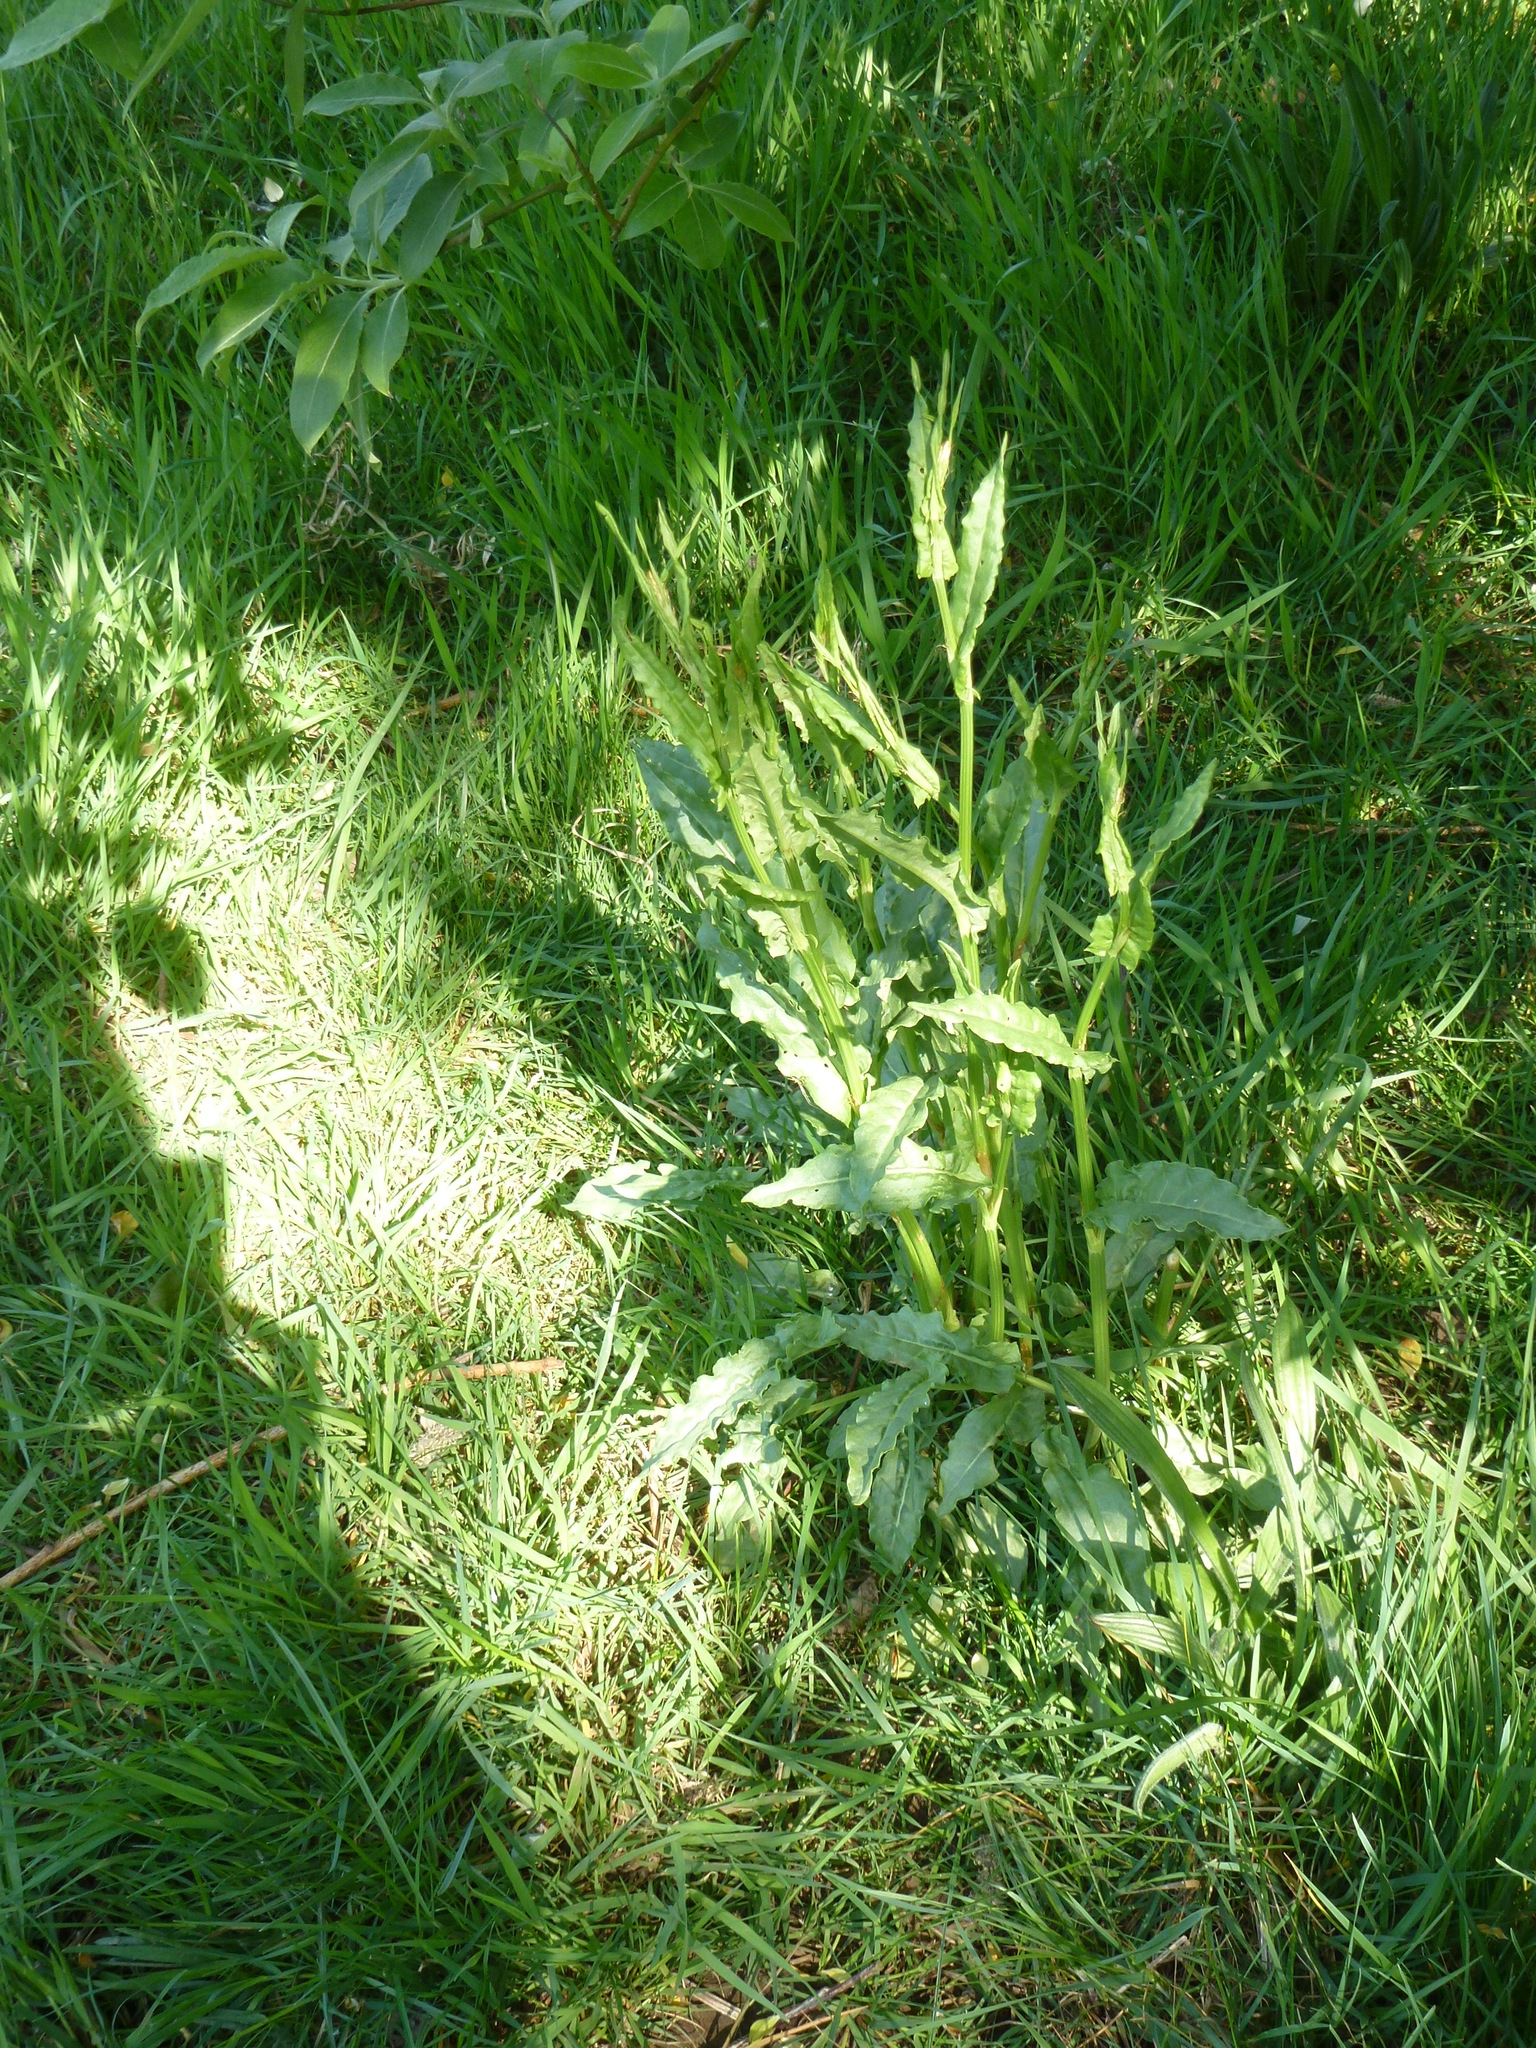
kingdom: Plantae
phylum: Tracheophyta
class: Magnoliopsida
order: Caryophyllales
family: Polygonaceae
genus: Rumex
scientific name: Rumex acetosa
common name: Garden sorrel
